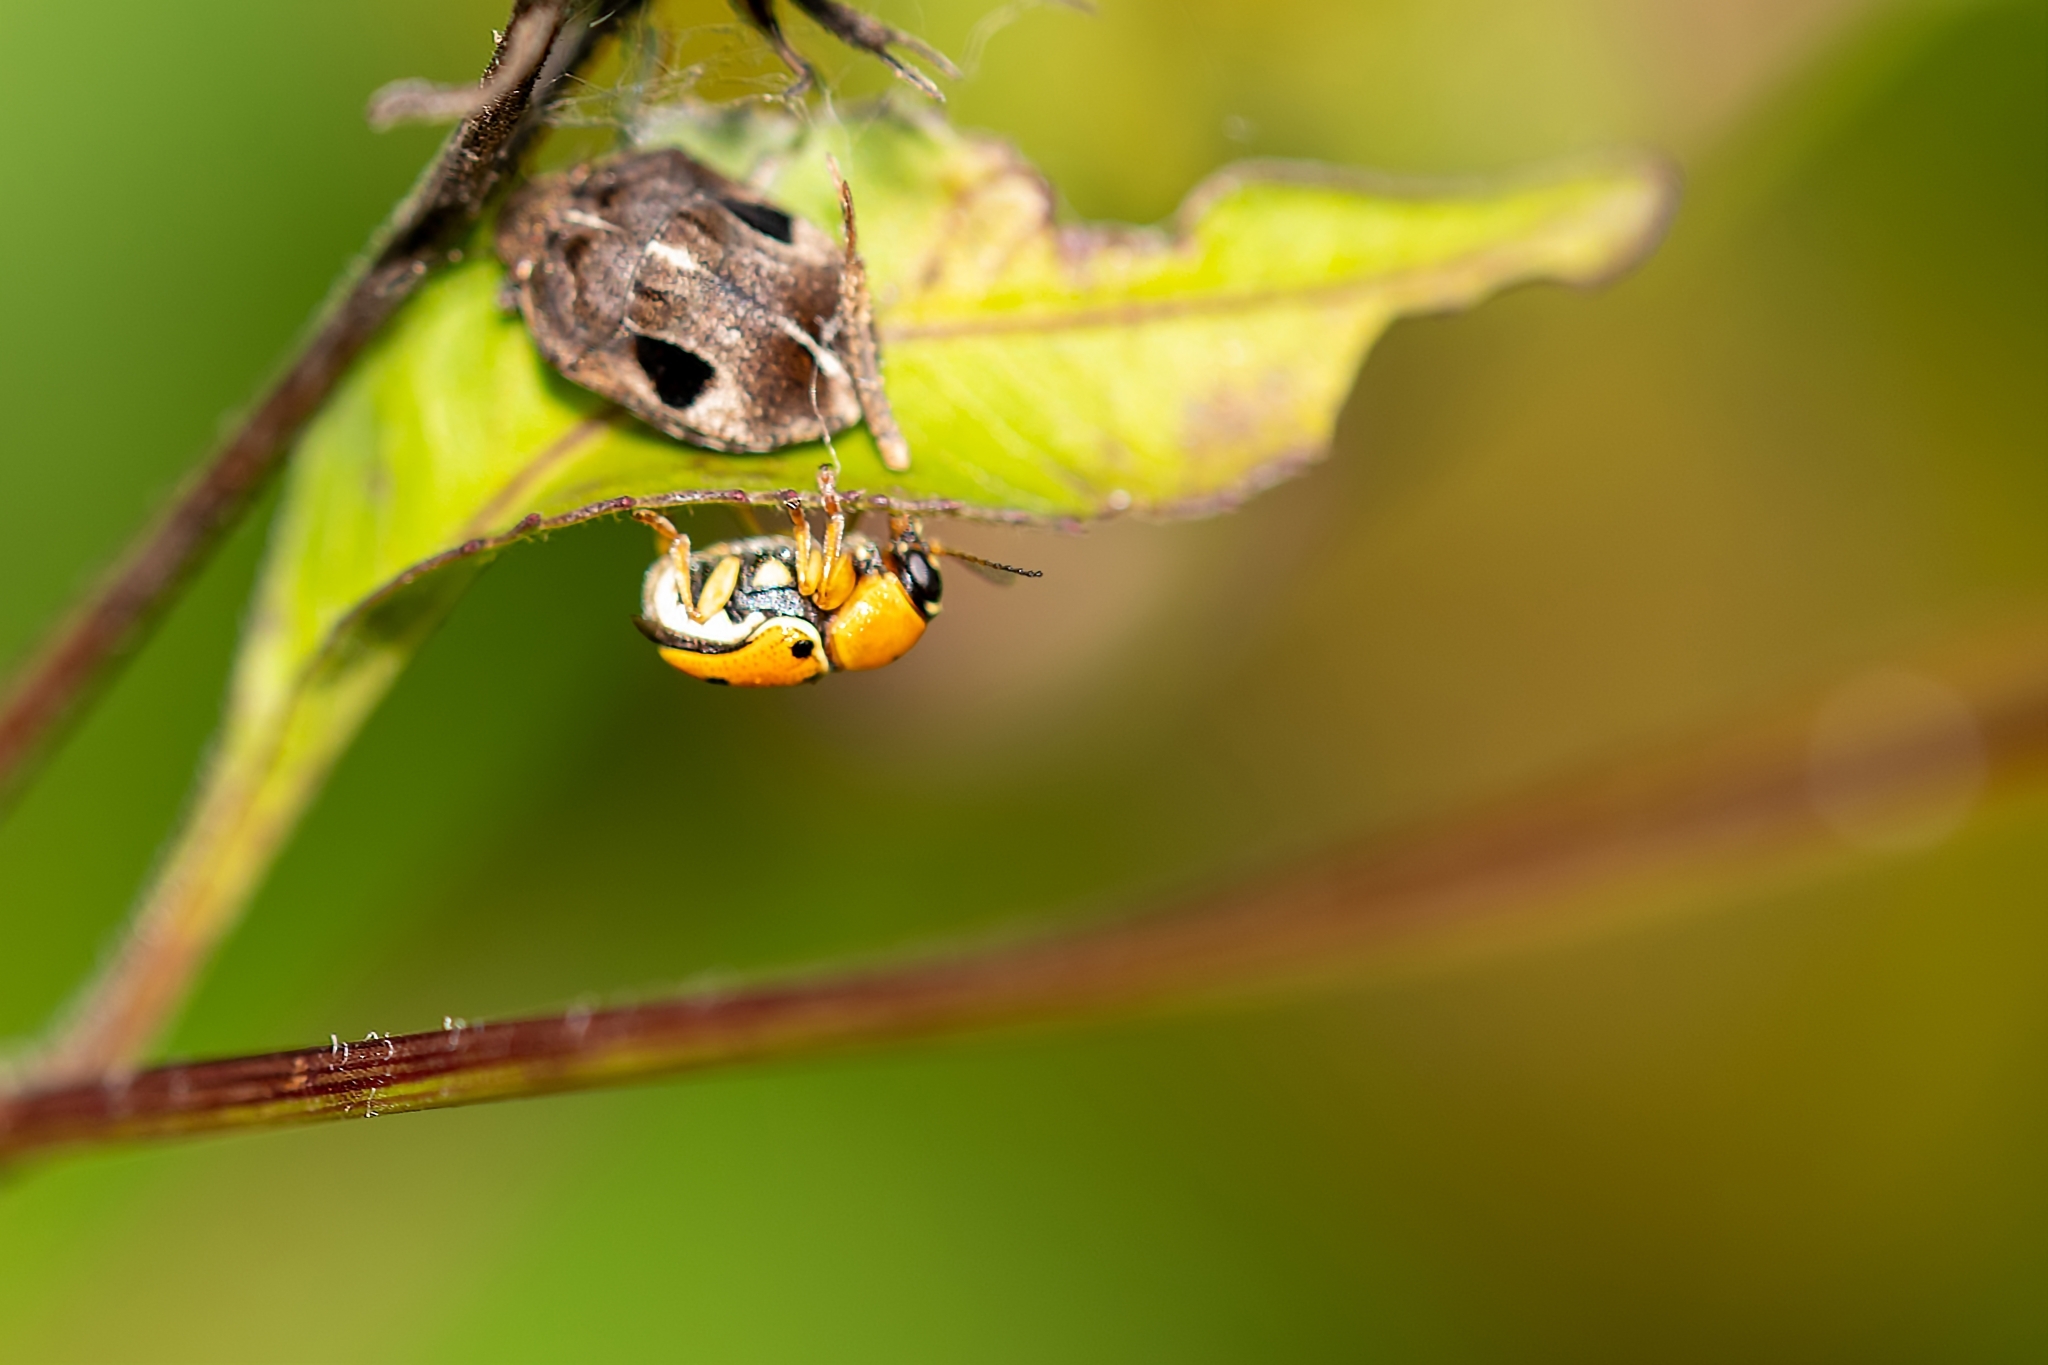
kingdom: Animalia
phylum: Arthropoda
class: Insecta
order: Coleoptera
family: Chrysomelidae
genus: Griburius
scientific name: Griburius larvatus
